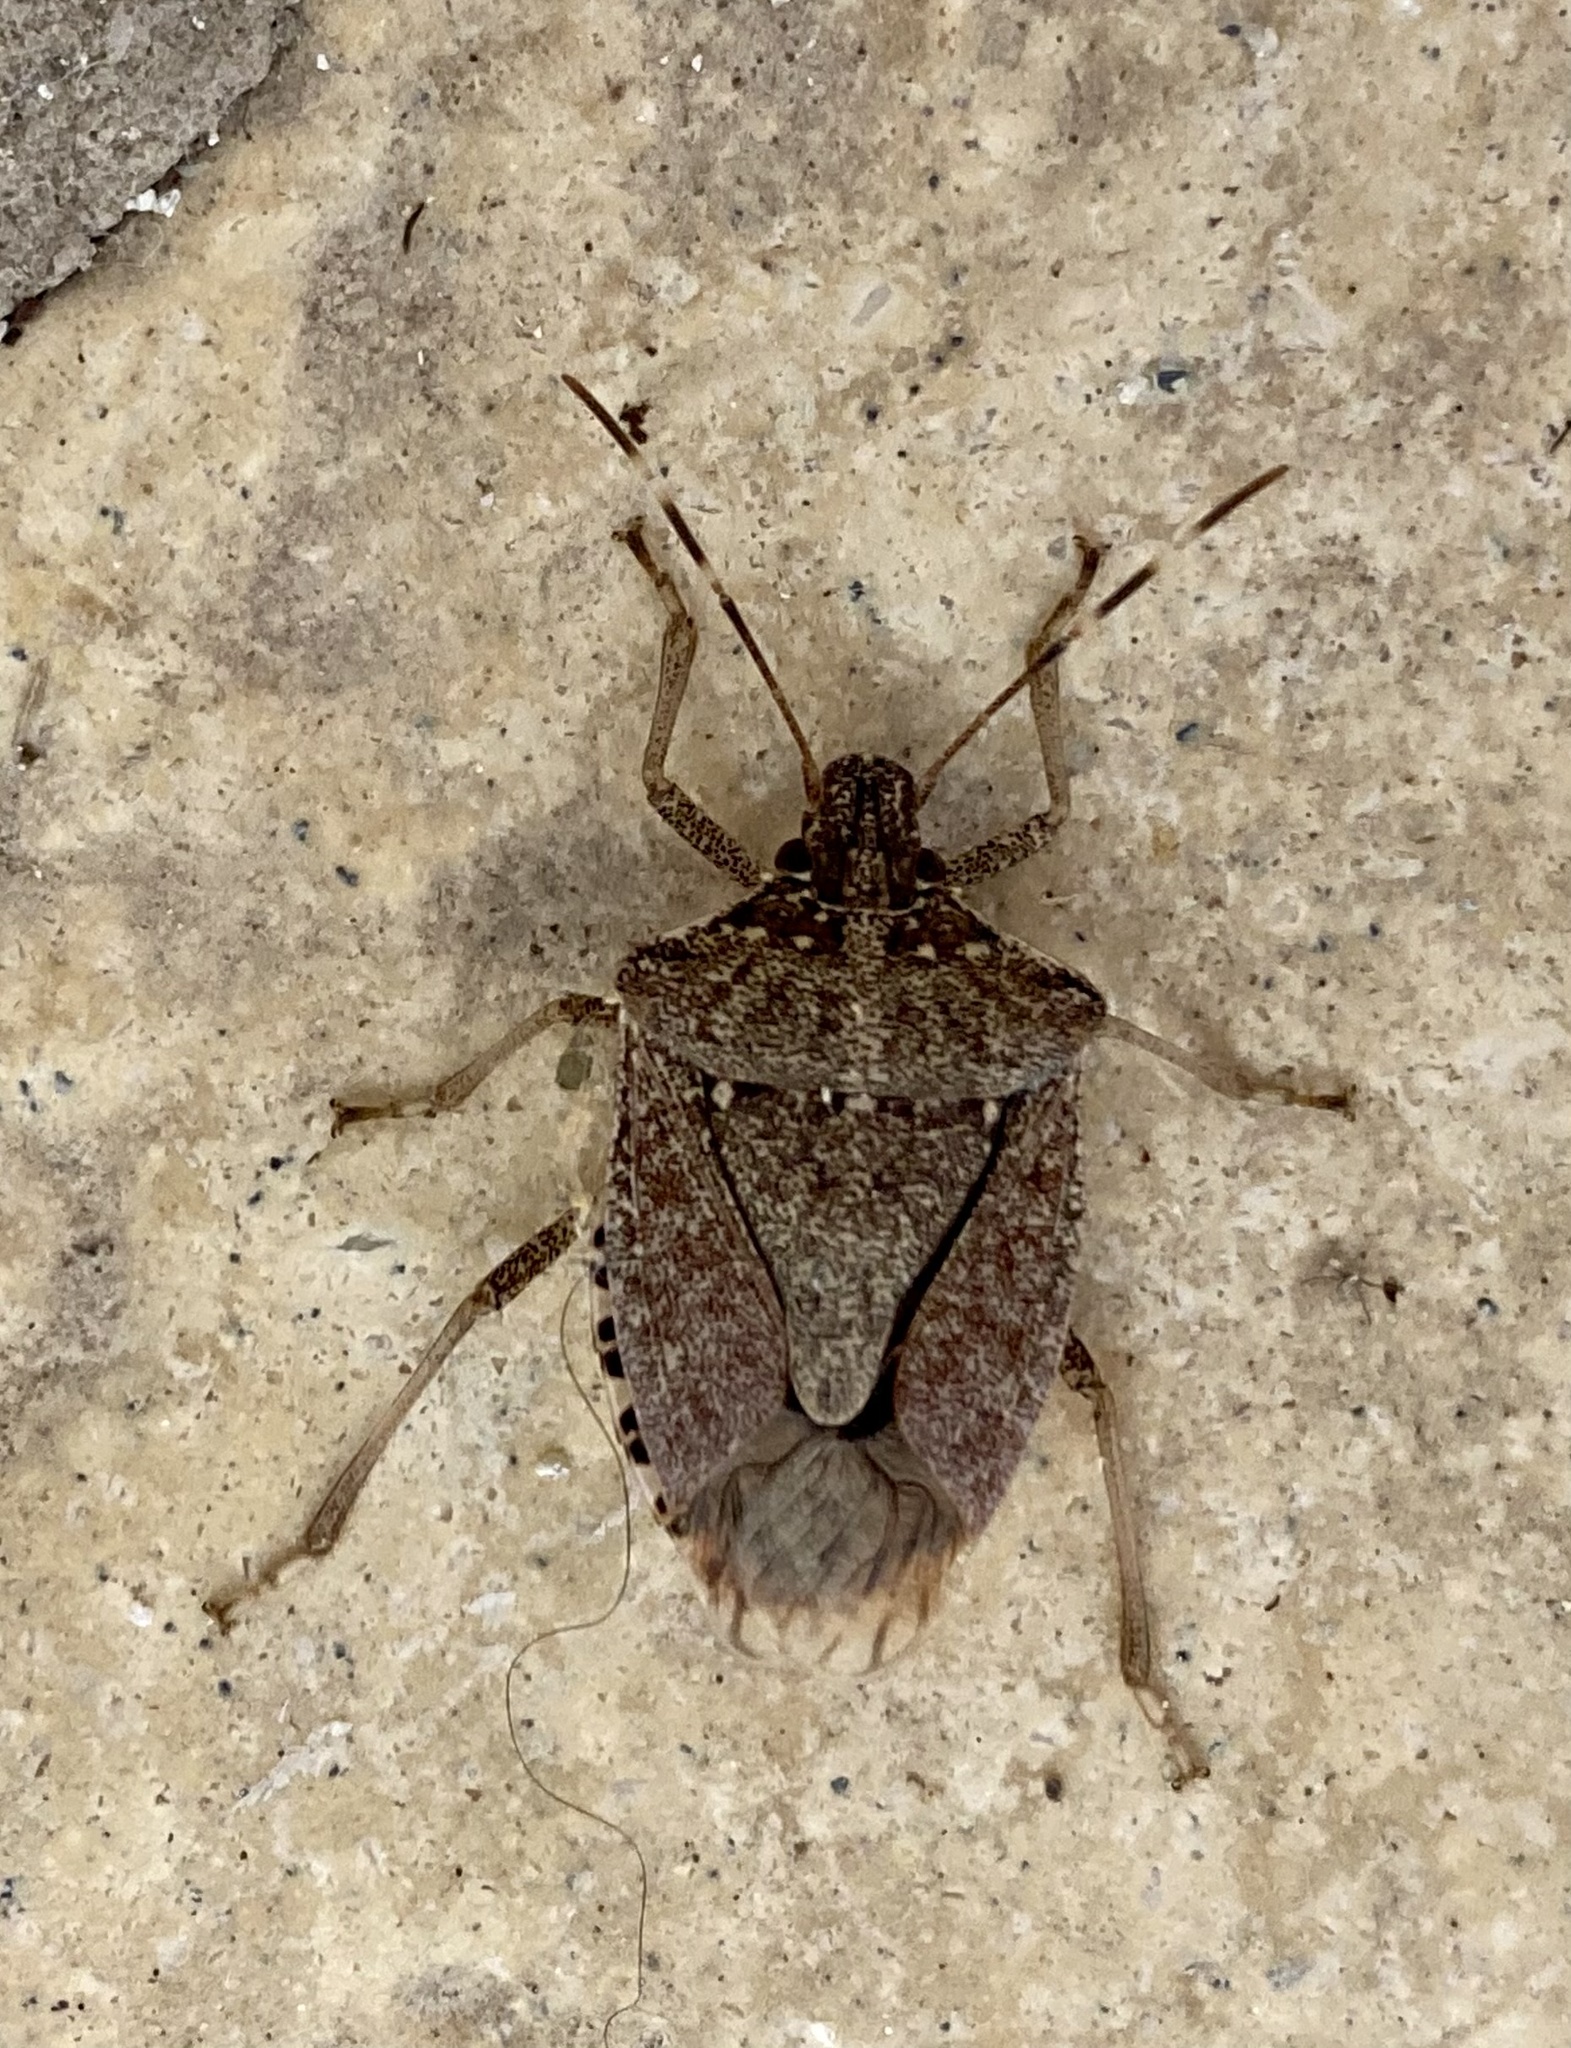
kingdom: Animalia
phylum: Arthropoda
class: Insecta
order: Hemiptera
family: Pentatomidae
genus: Halyomorpha
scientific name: Halyomorpha halys
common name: Brown marmorated stink bug
